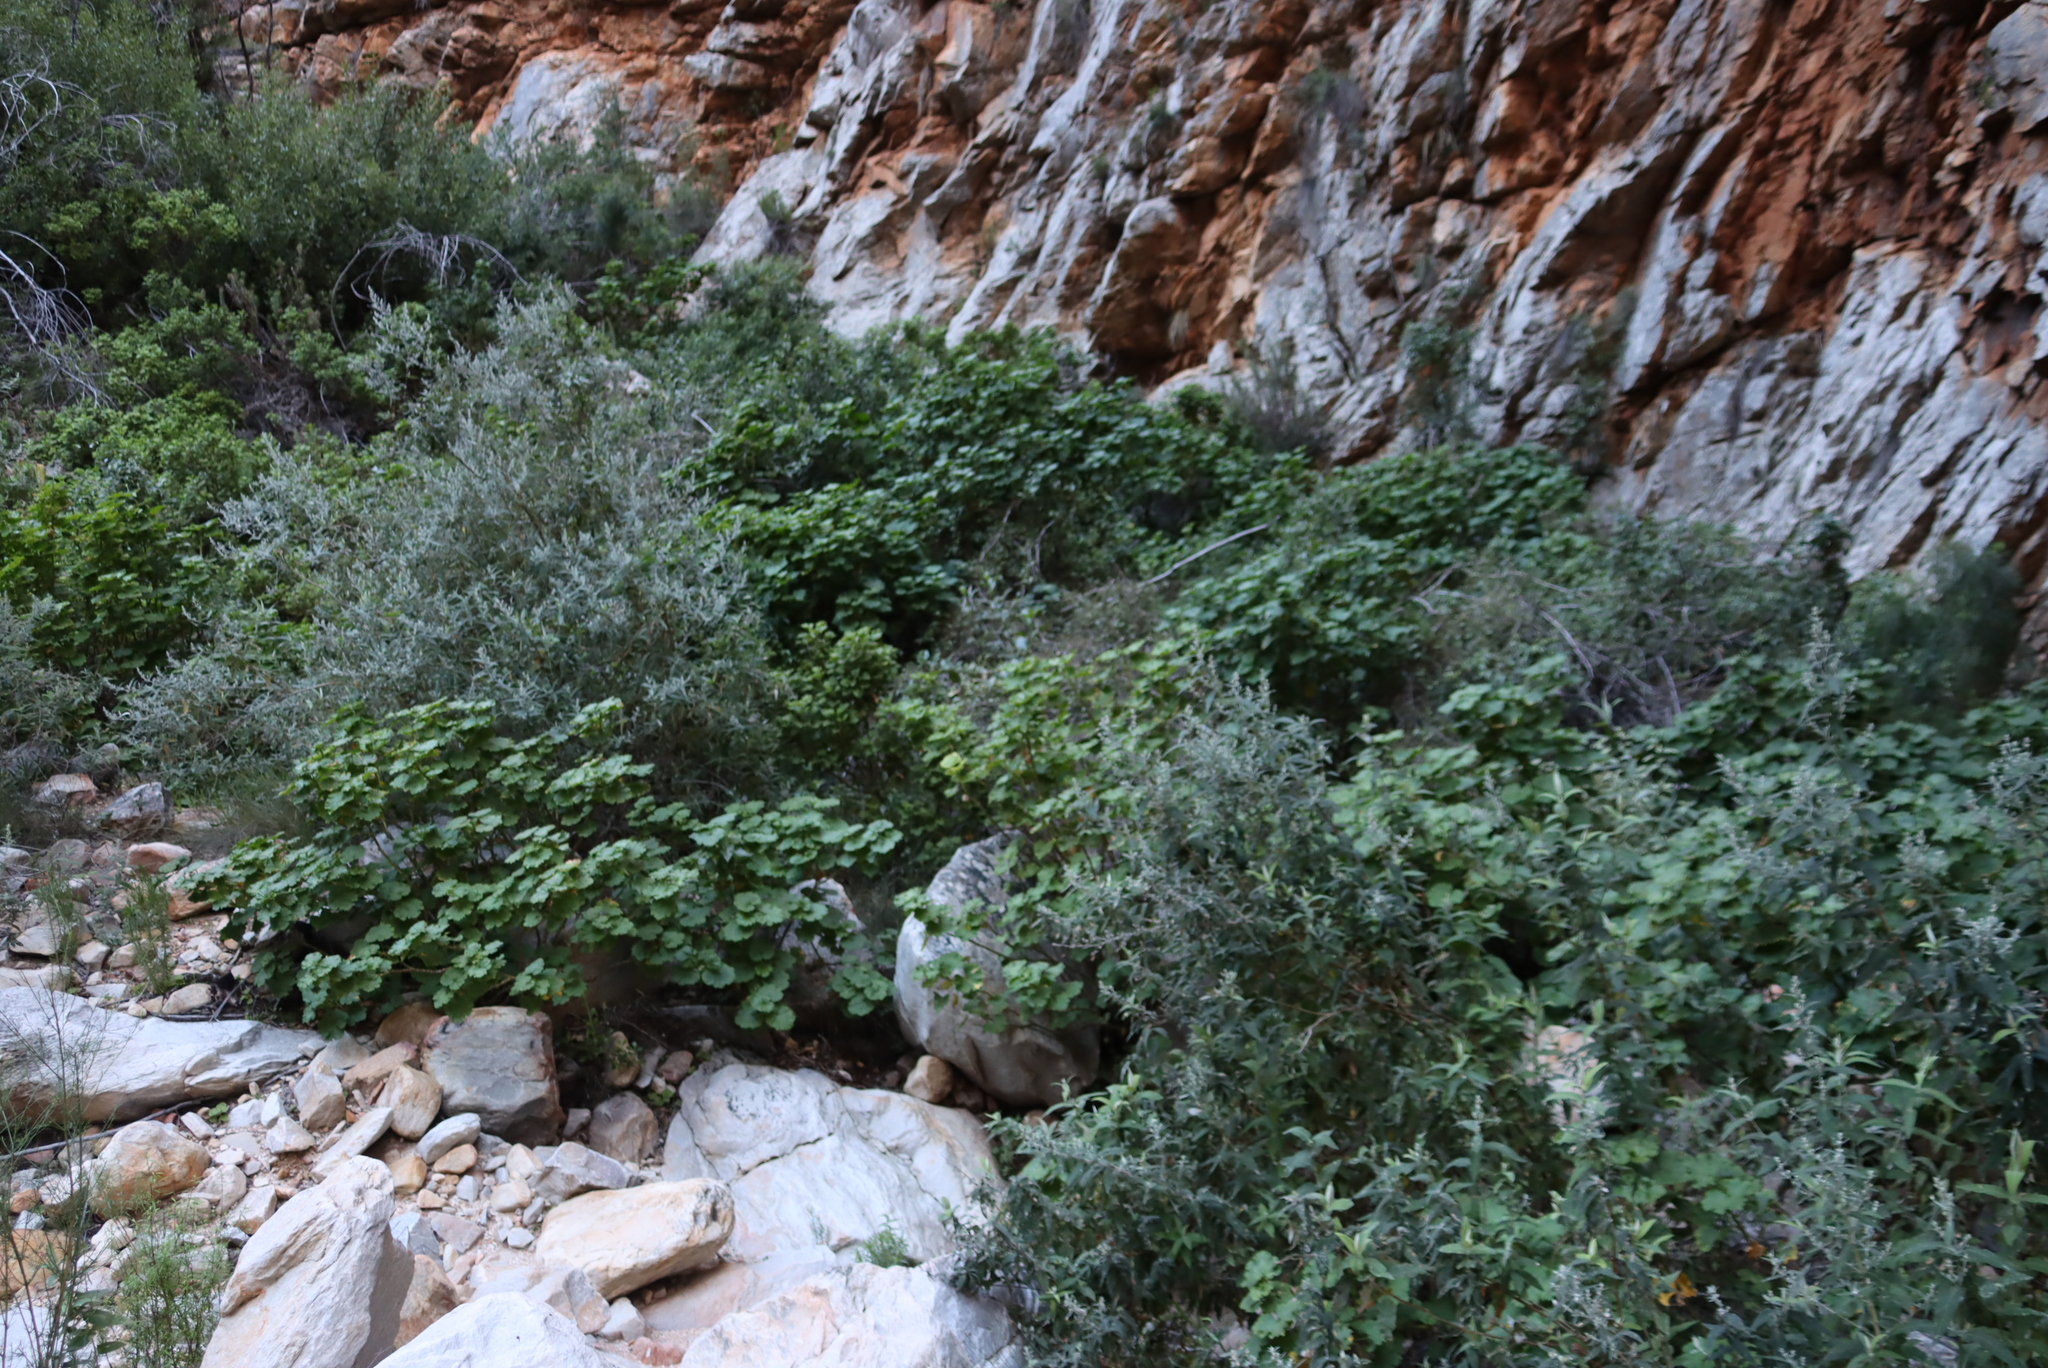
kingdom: Plantae
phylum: Tracheophyta
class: Magnoliopsida
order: Geraniales
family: Geraniaceae
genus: Pelargonium
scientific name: Pelargonium zonale
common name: Horseshoe geranium
